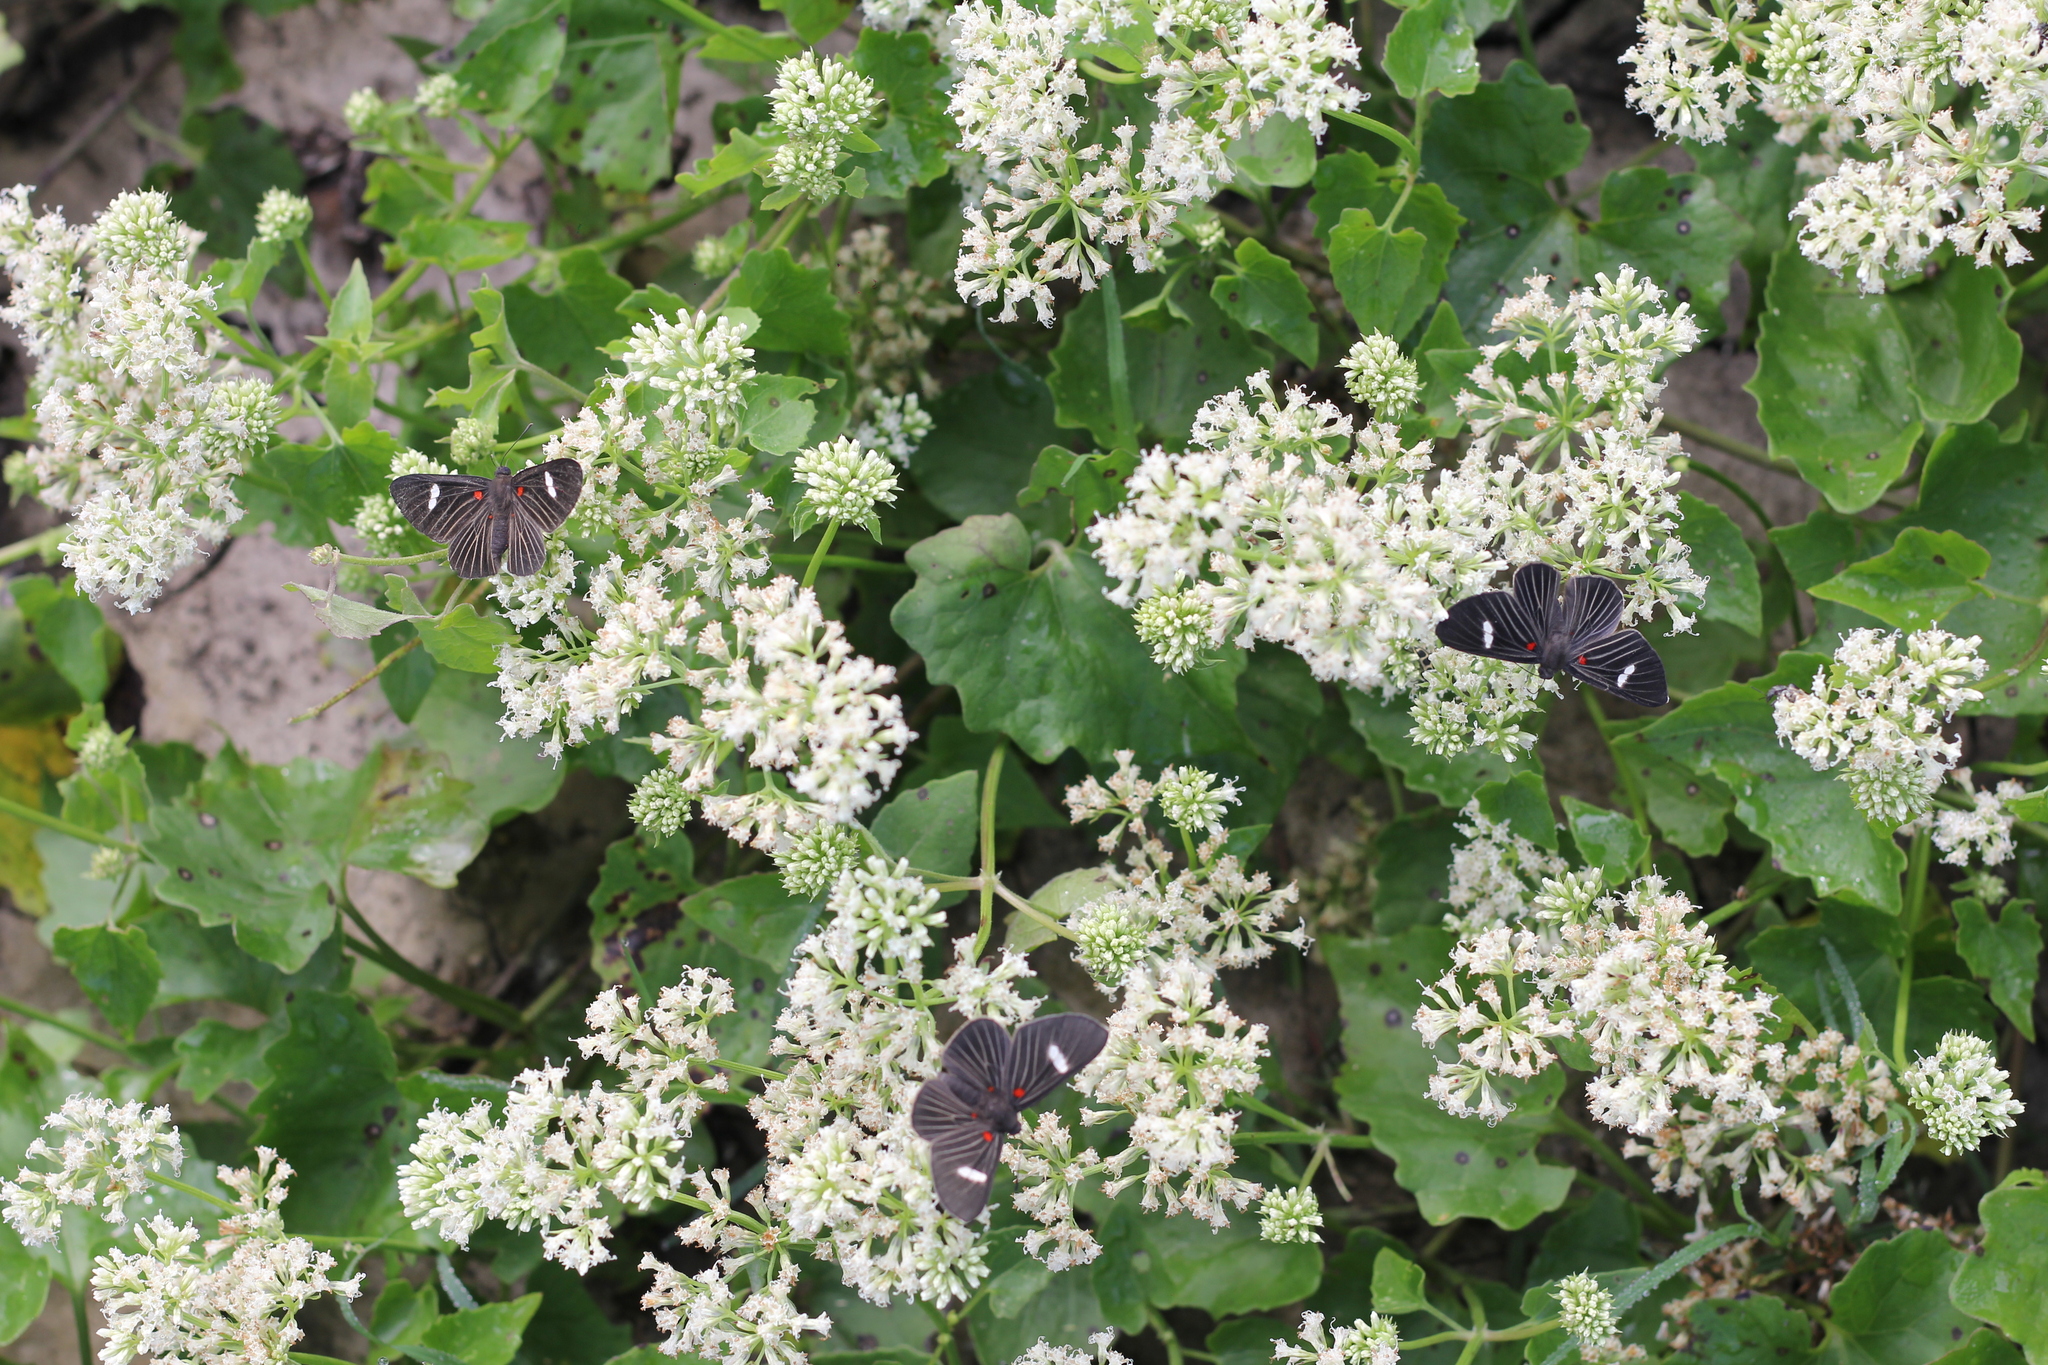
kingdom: Animalia
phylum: Arthropoda
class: Insecta
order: Lepidoptera
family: Lycaenidae
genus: Melanis
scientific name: Melanis aegates
